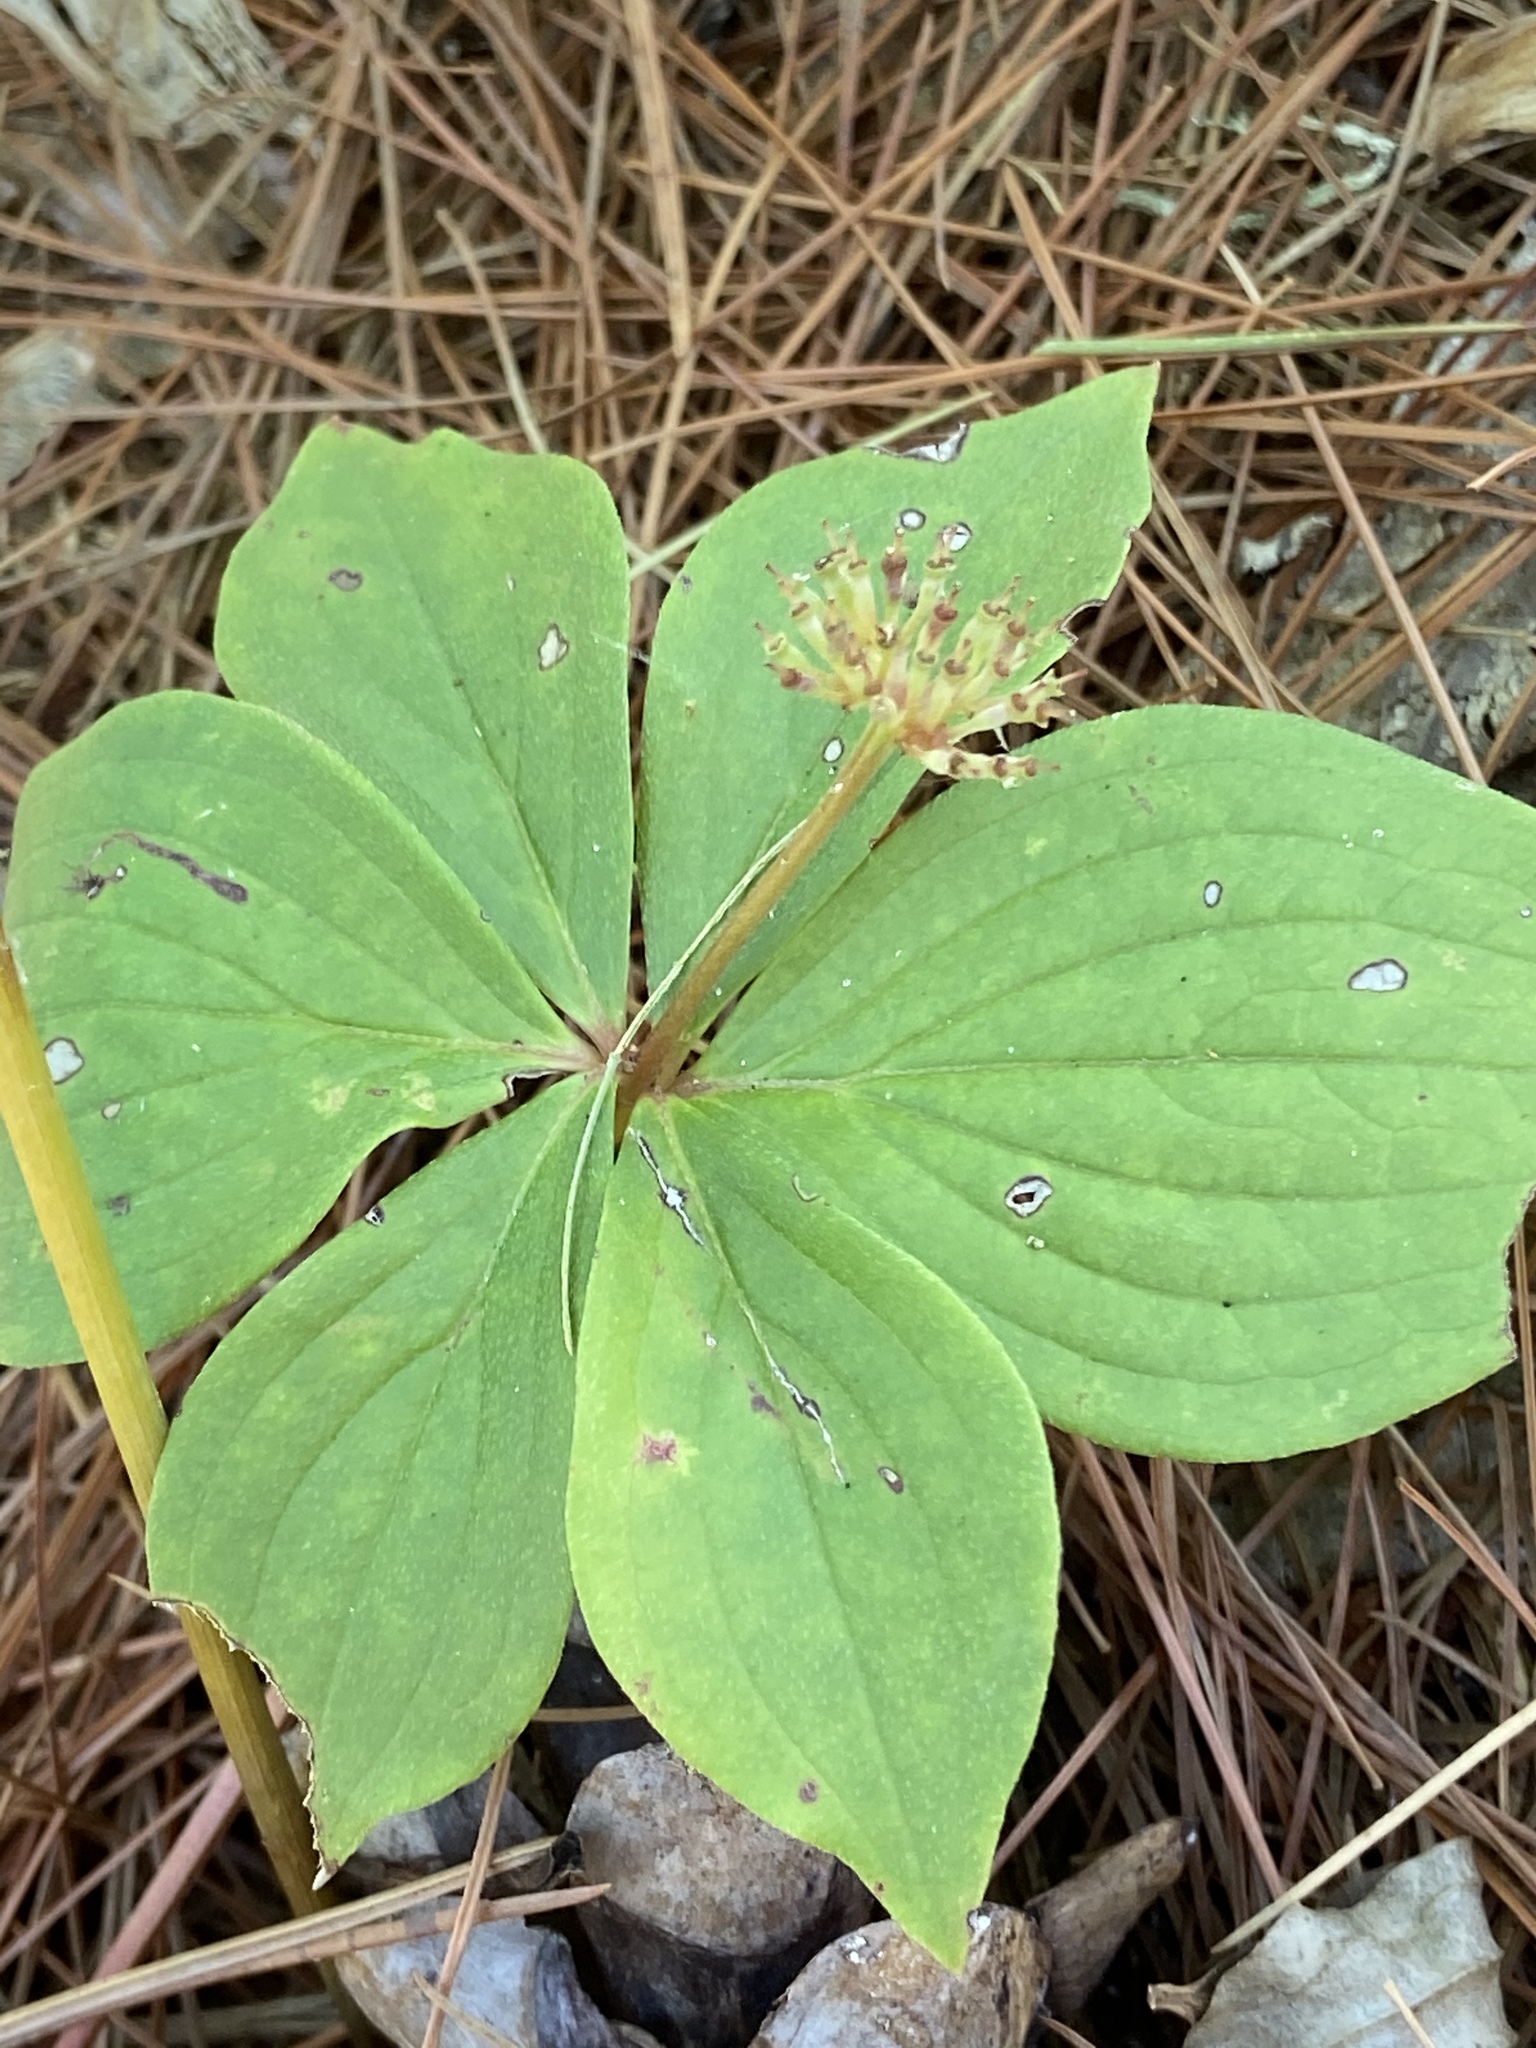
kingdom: Plantae
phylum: Tracheophyta
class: Magnoliopsida
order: Cornales
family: Cornaceae
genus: Cornus
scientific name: Cornus canadensis
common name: Creeping dogwood
